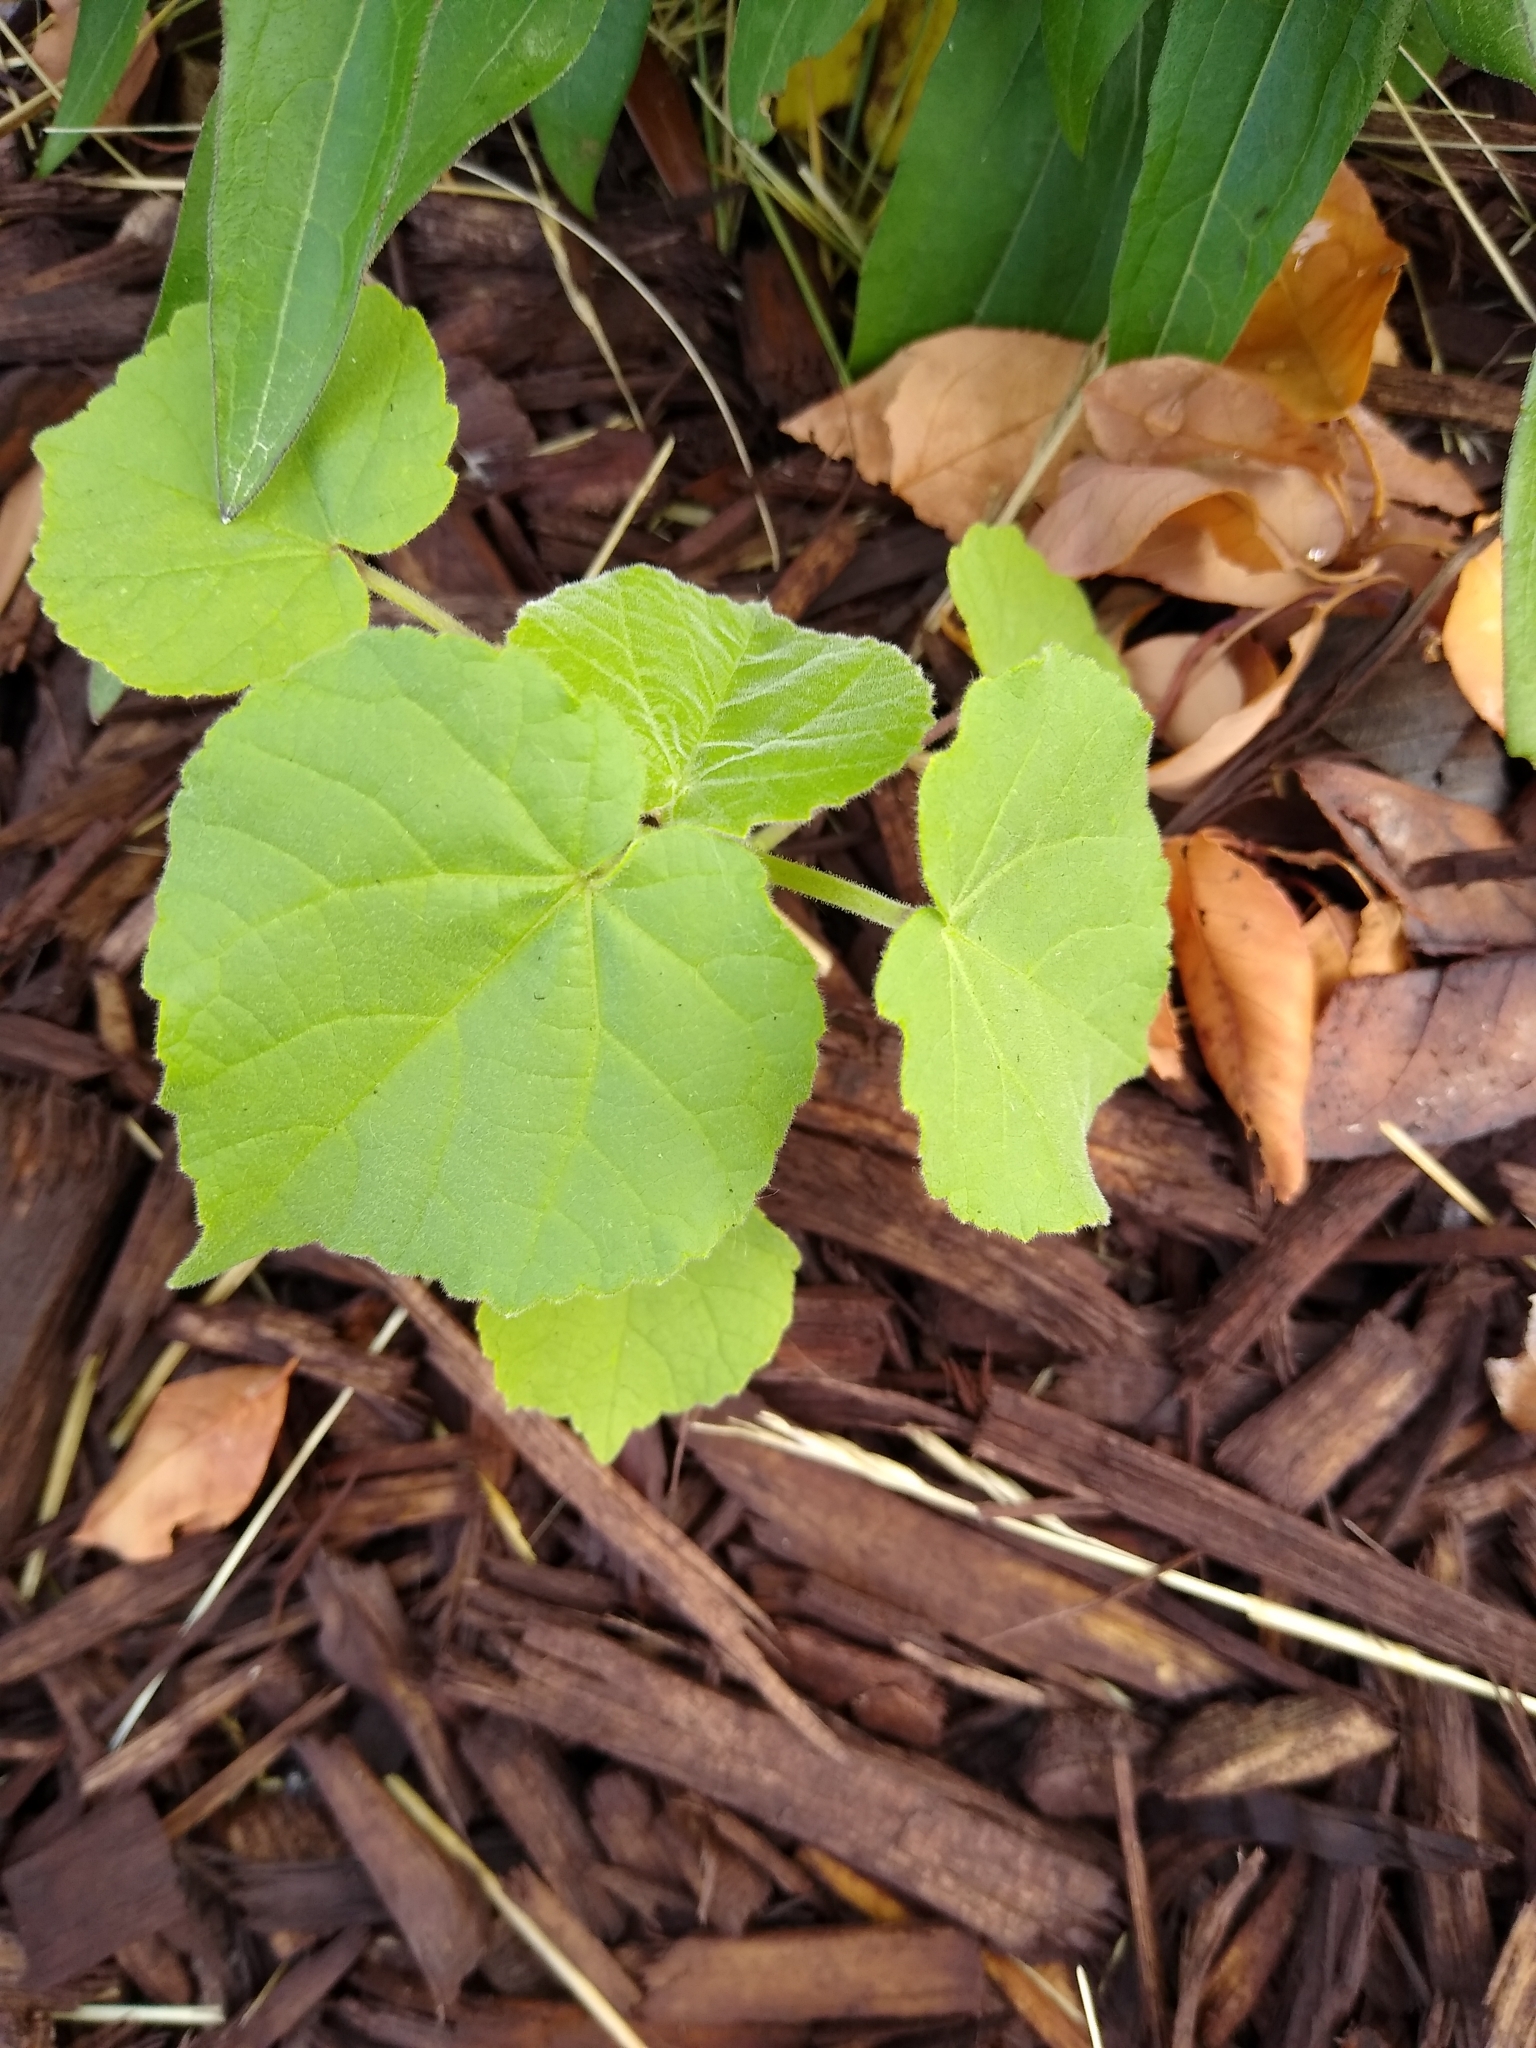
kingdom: Plantae
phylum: Tracheophyta
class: Magnoliopsida
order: Malvales
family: Malvaceae
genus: Abutilon
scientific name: Abutilon theophrasti
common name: Velvetleaf
